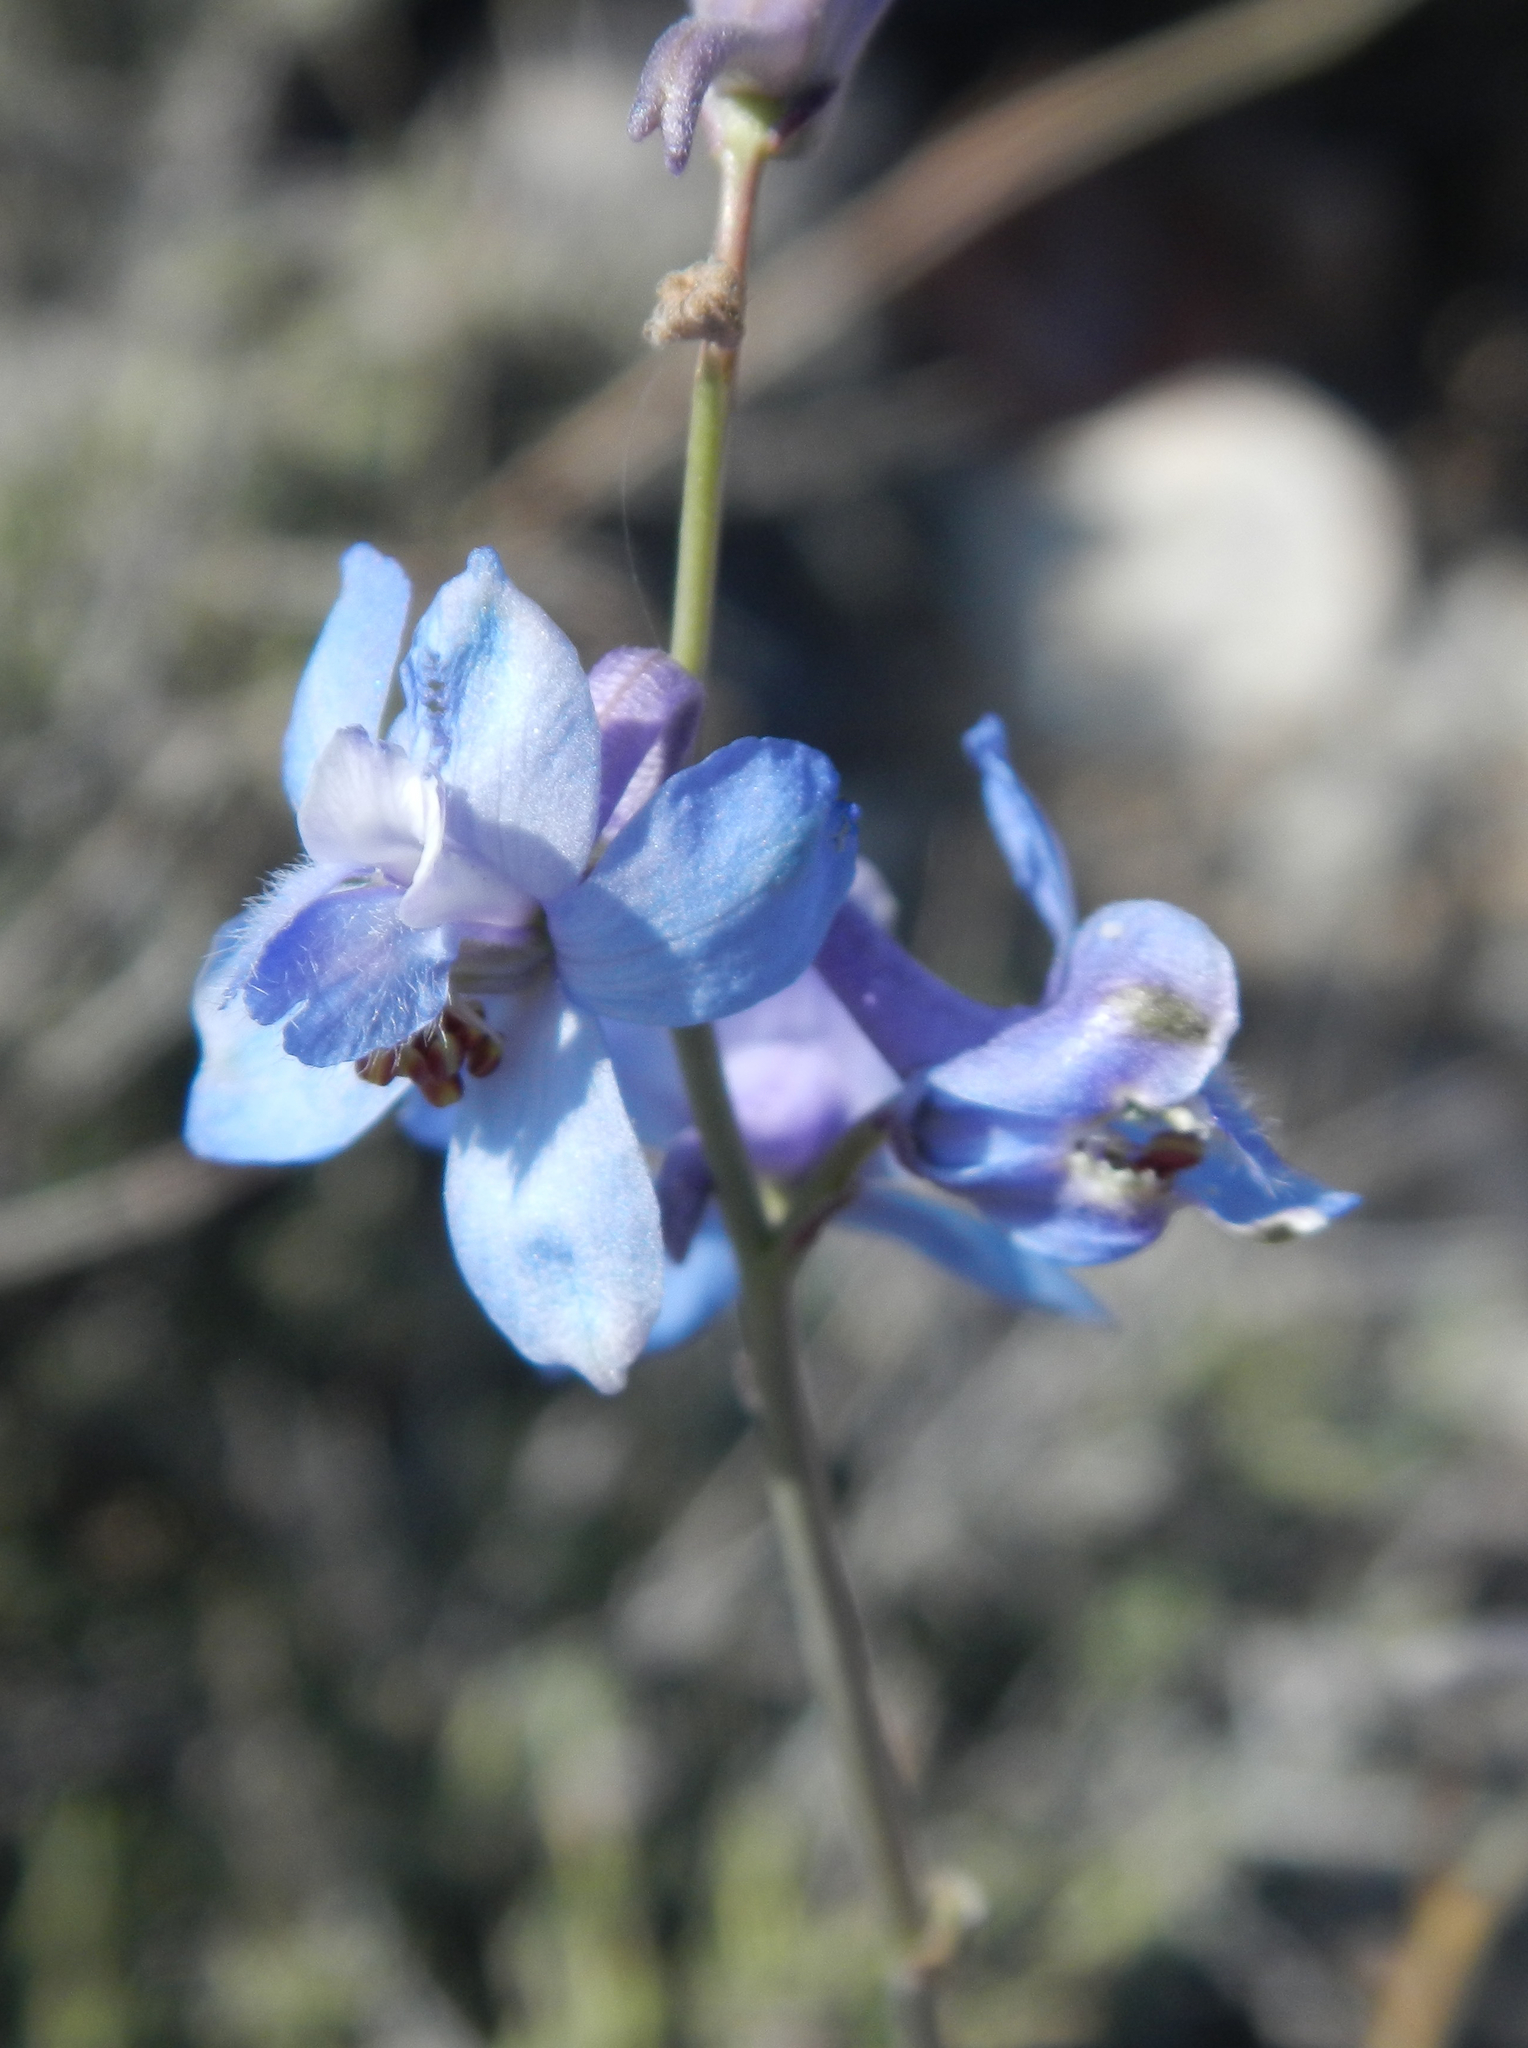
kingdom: Plantae
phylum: Tracheophyta
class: Magnoliopsida
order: Ranunculales
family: Ranunculaceae
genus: Delphinium
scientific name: Delphinium parishii
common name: Apache larkspur
